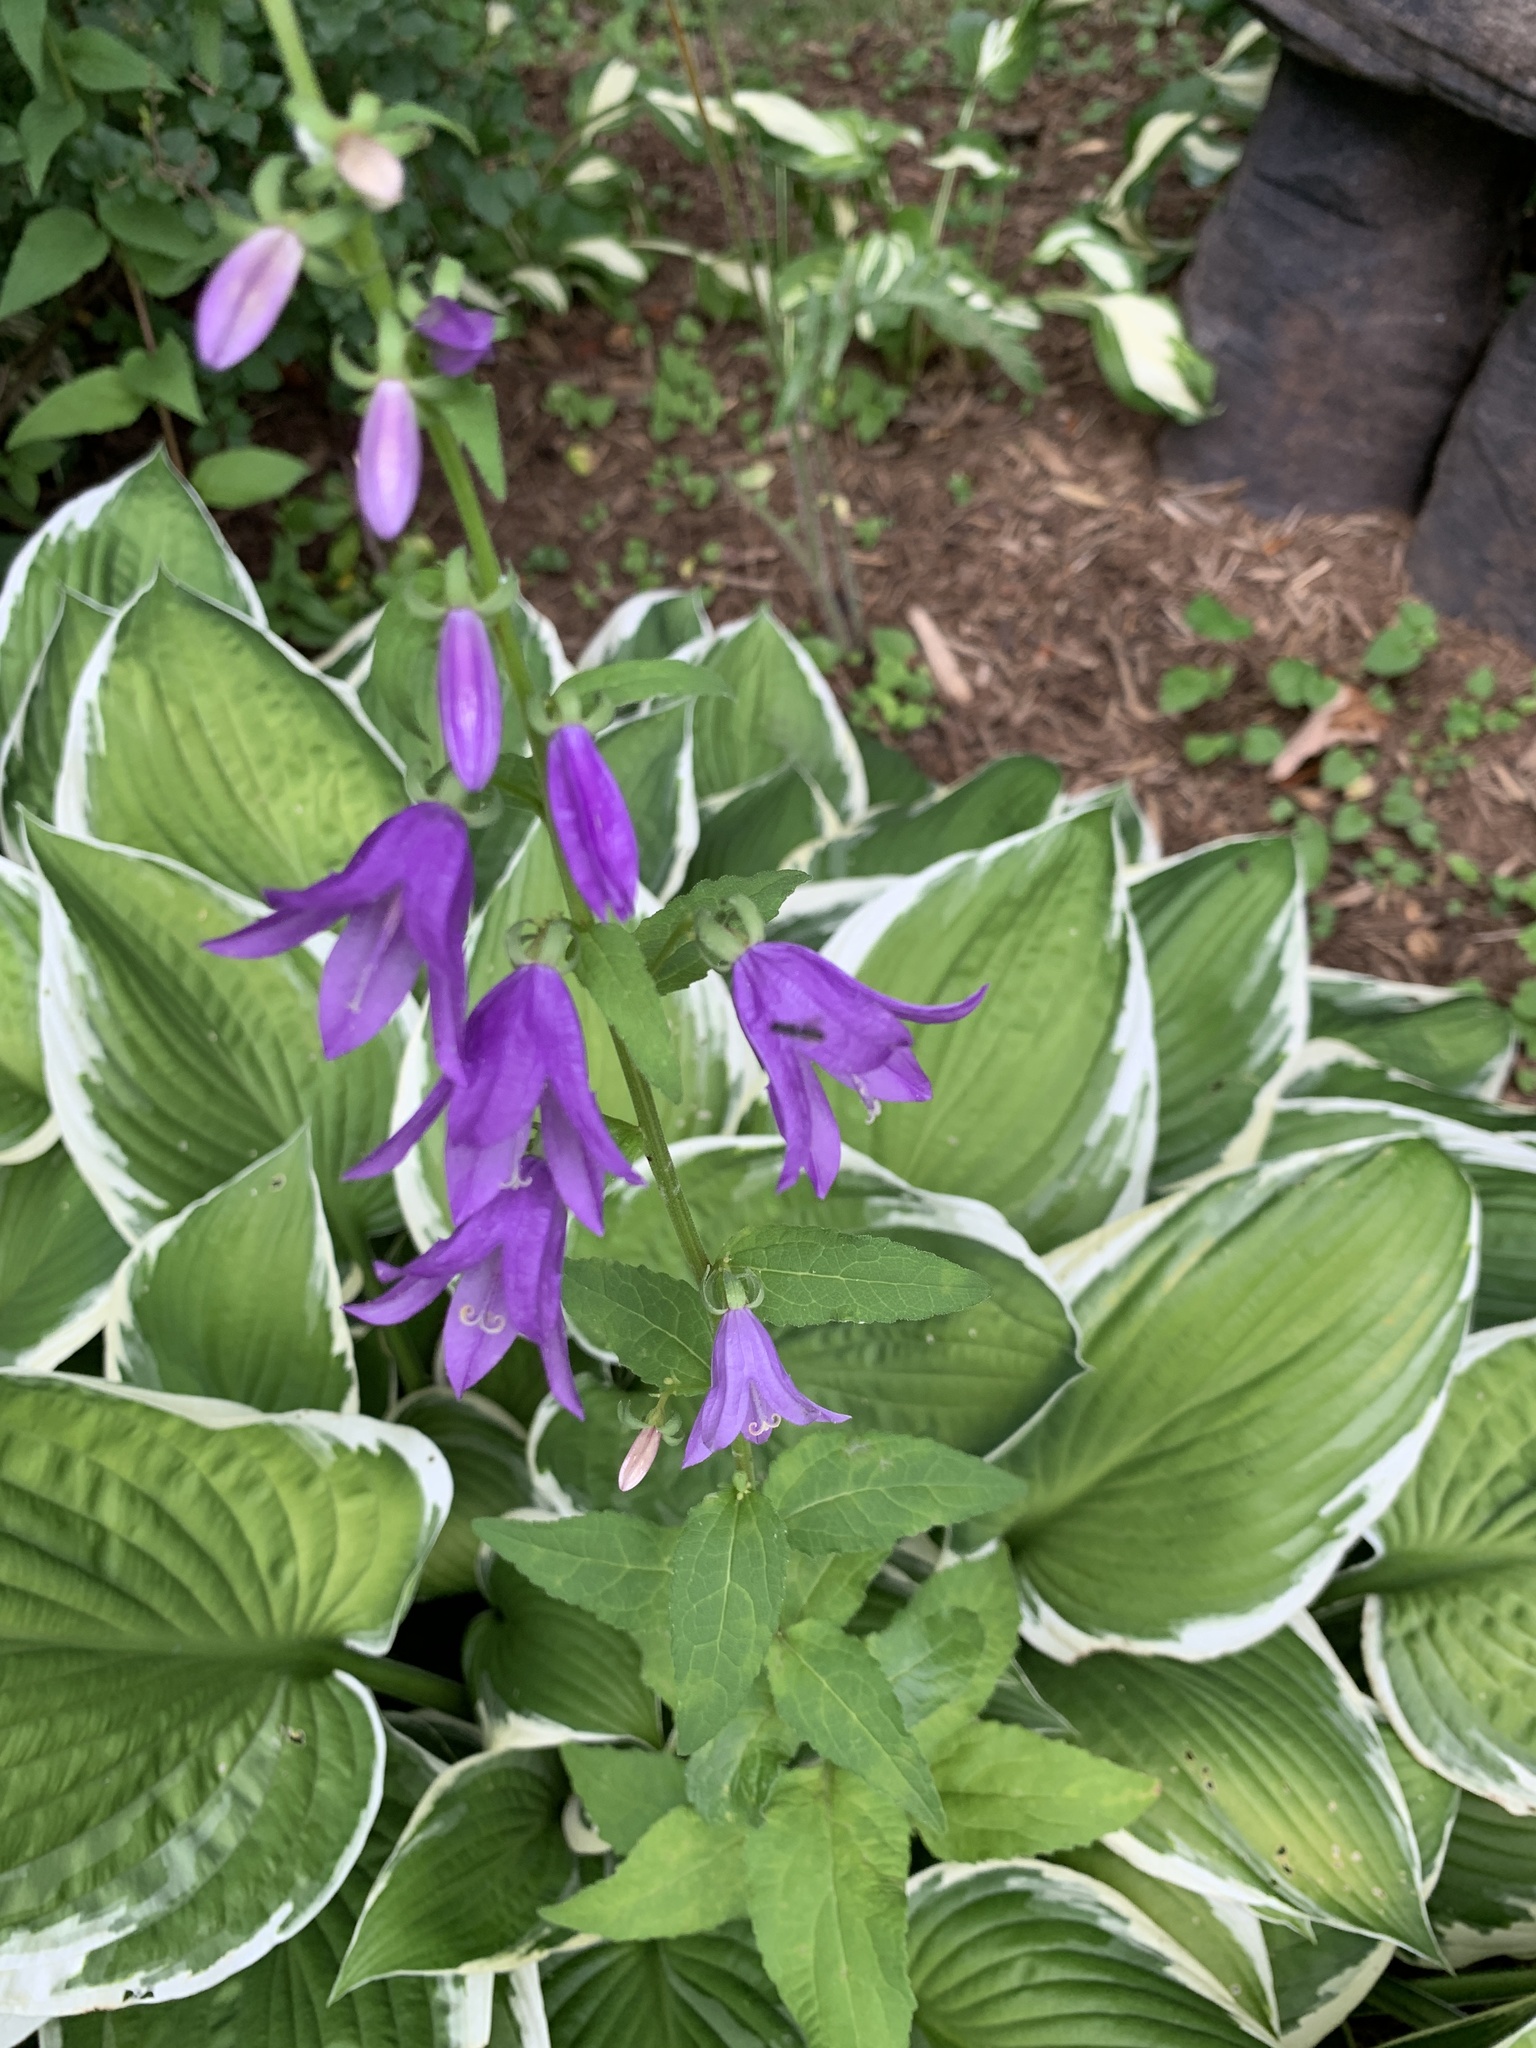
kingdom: Plantae
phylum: Tracheophyta
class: Magnoliopsida
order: Asterales
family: Campanulaceae
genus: Campanula
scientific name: Campanula rapunculoides
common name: Creeping bellflower
